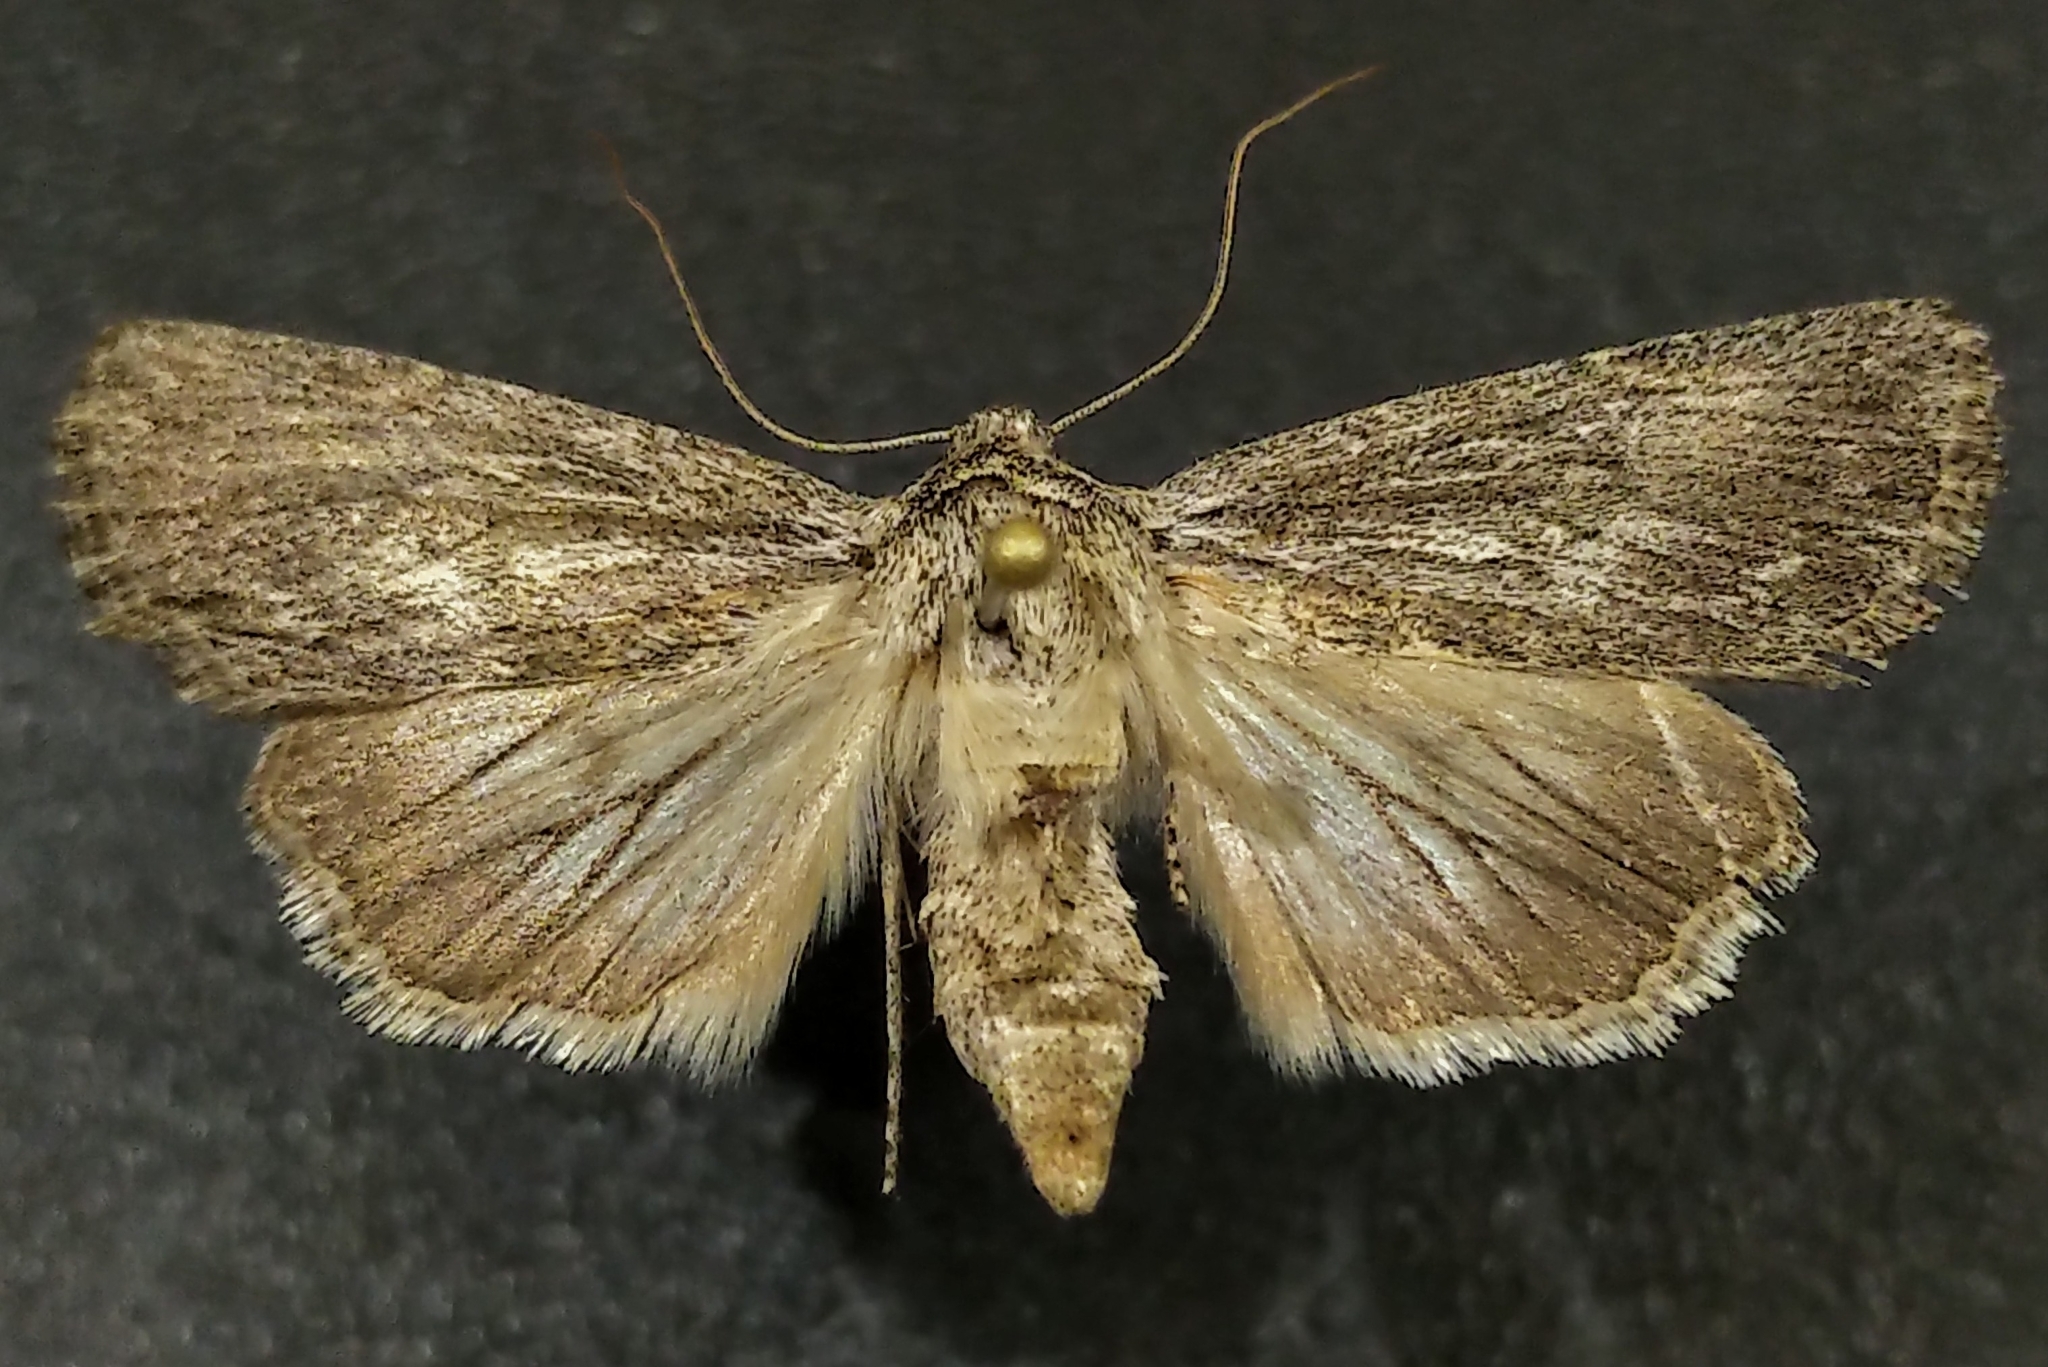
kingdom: Animalia
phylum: Arthropoda
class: Insecta
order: Lepidoptera
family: Noctuidae
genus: Sympistis
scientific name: Sympistis chons
